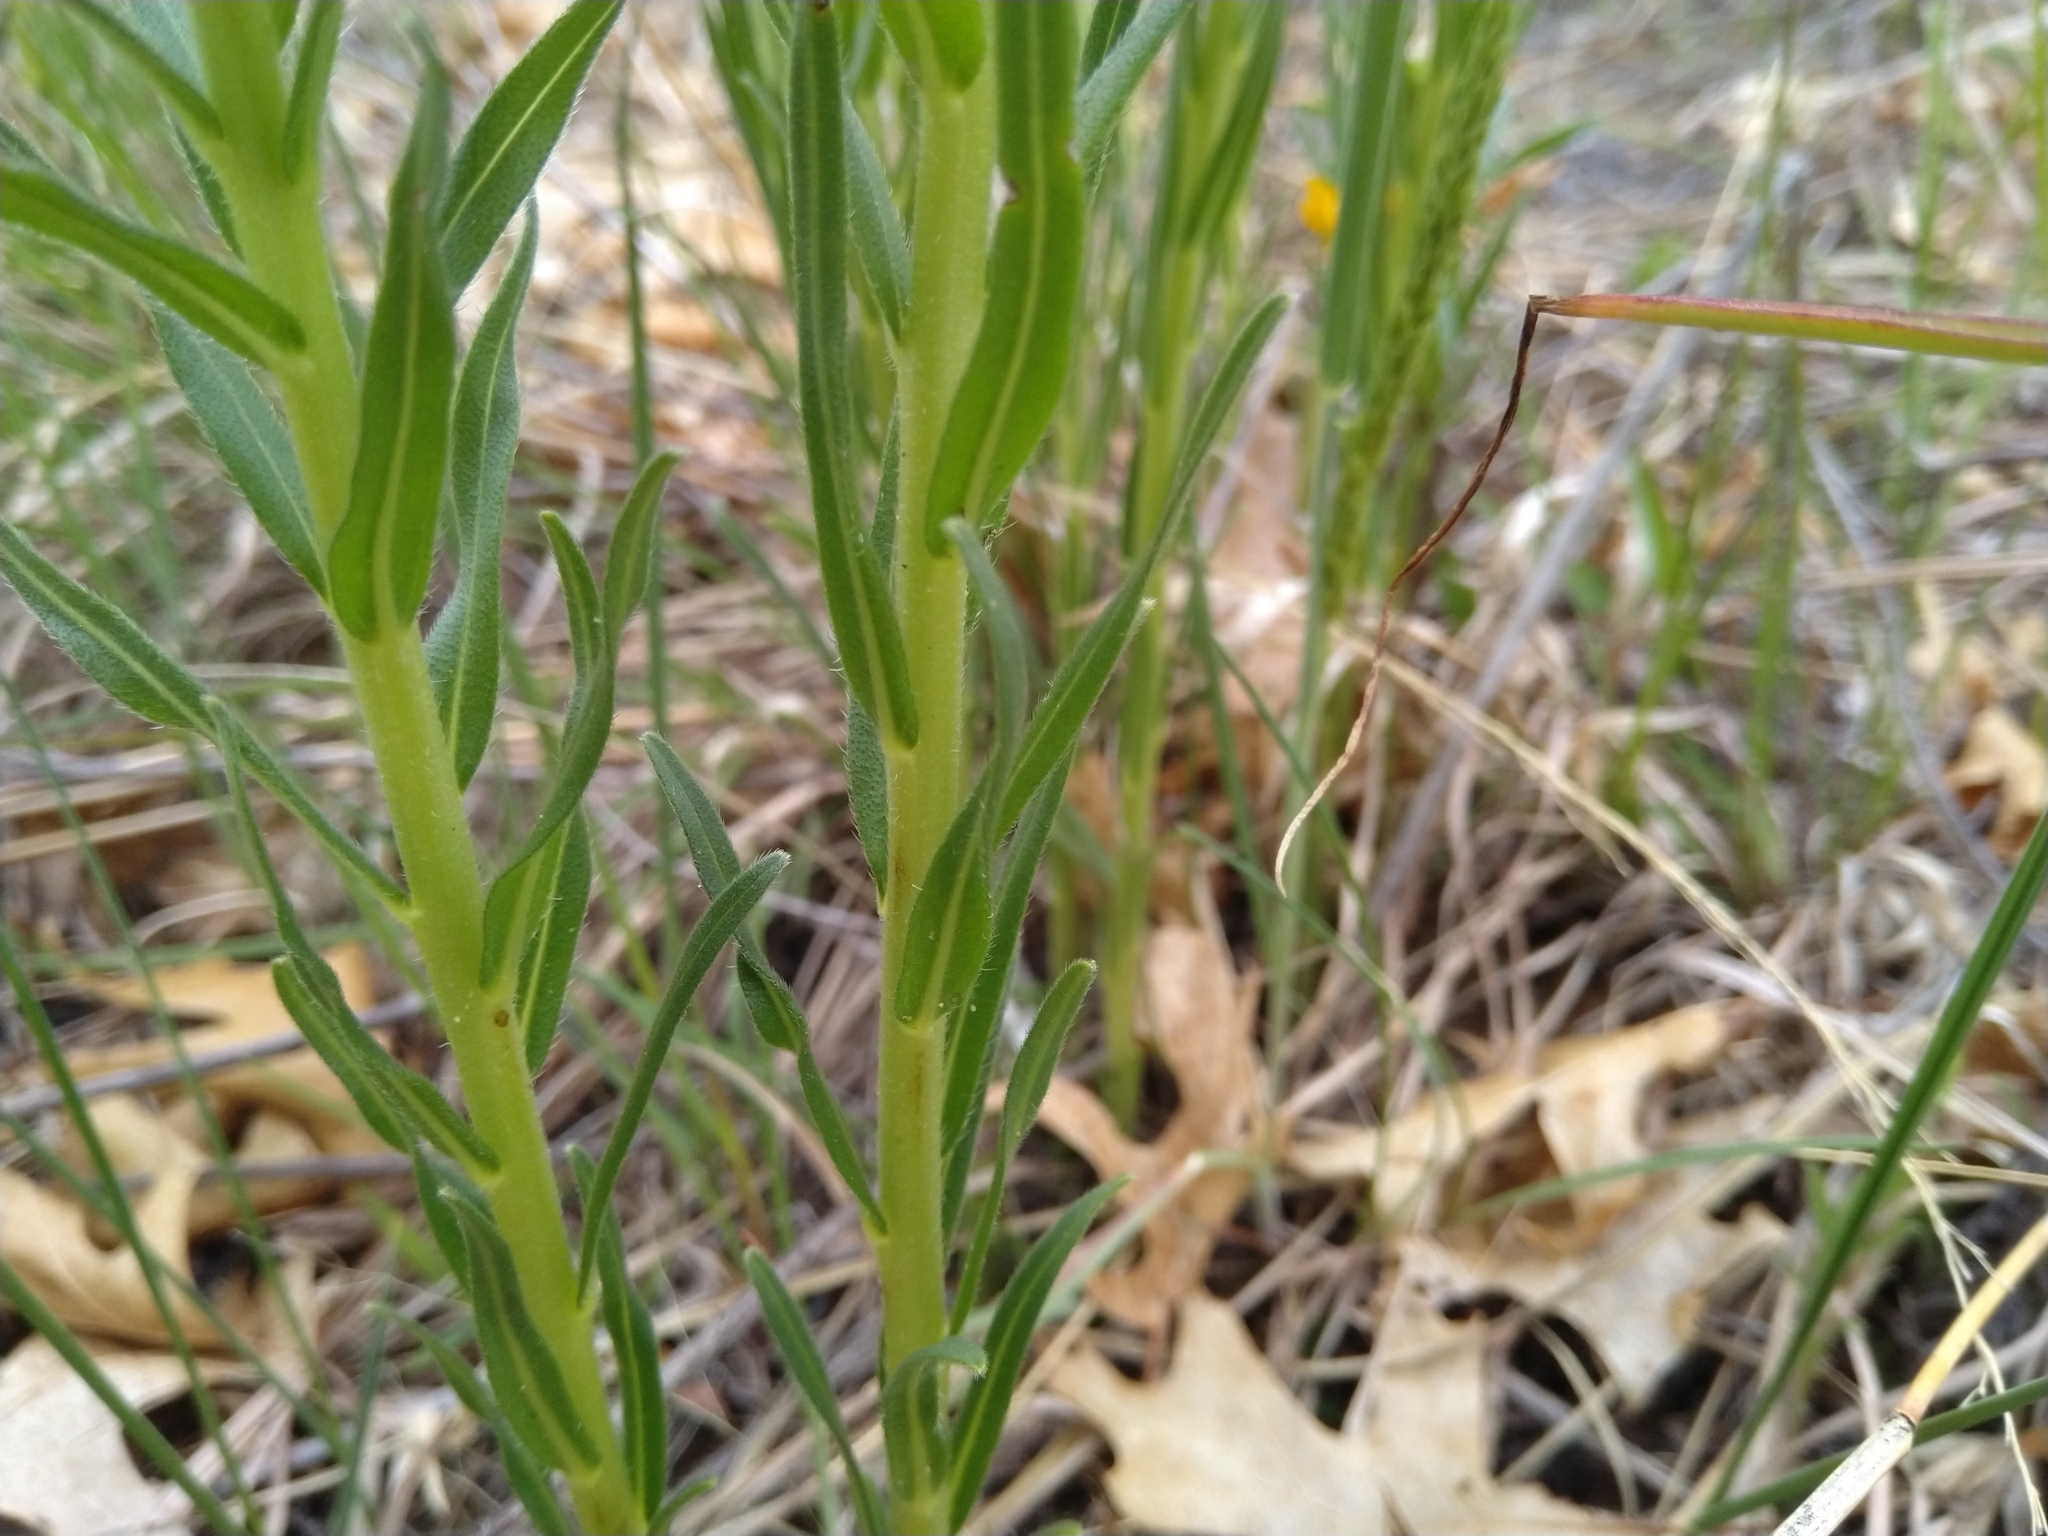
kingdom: Plantae
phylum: Tracheophyta
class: Magnoliopsida
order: Boraginales
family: Boraginaceae
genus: Lithospermum
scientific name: Lithospermum caroliniense
